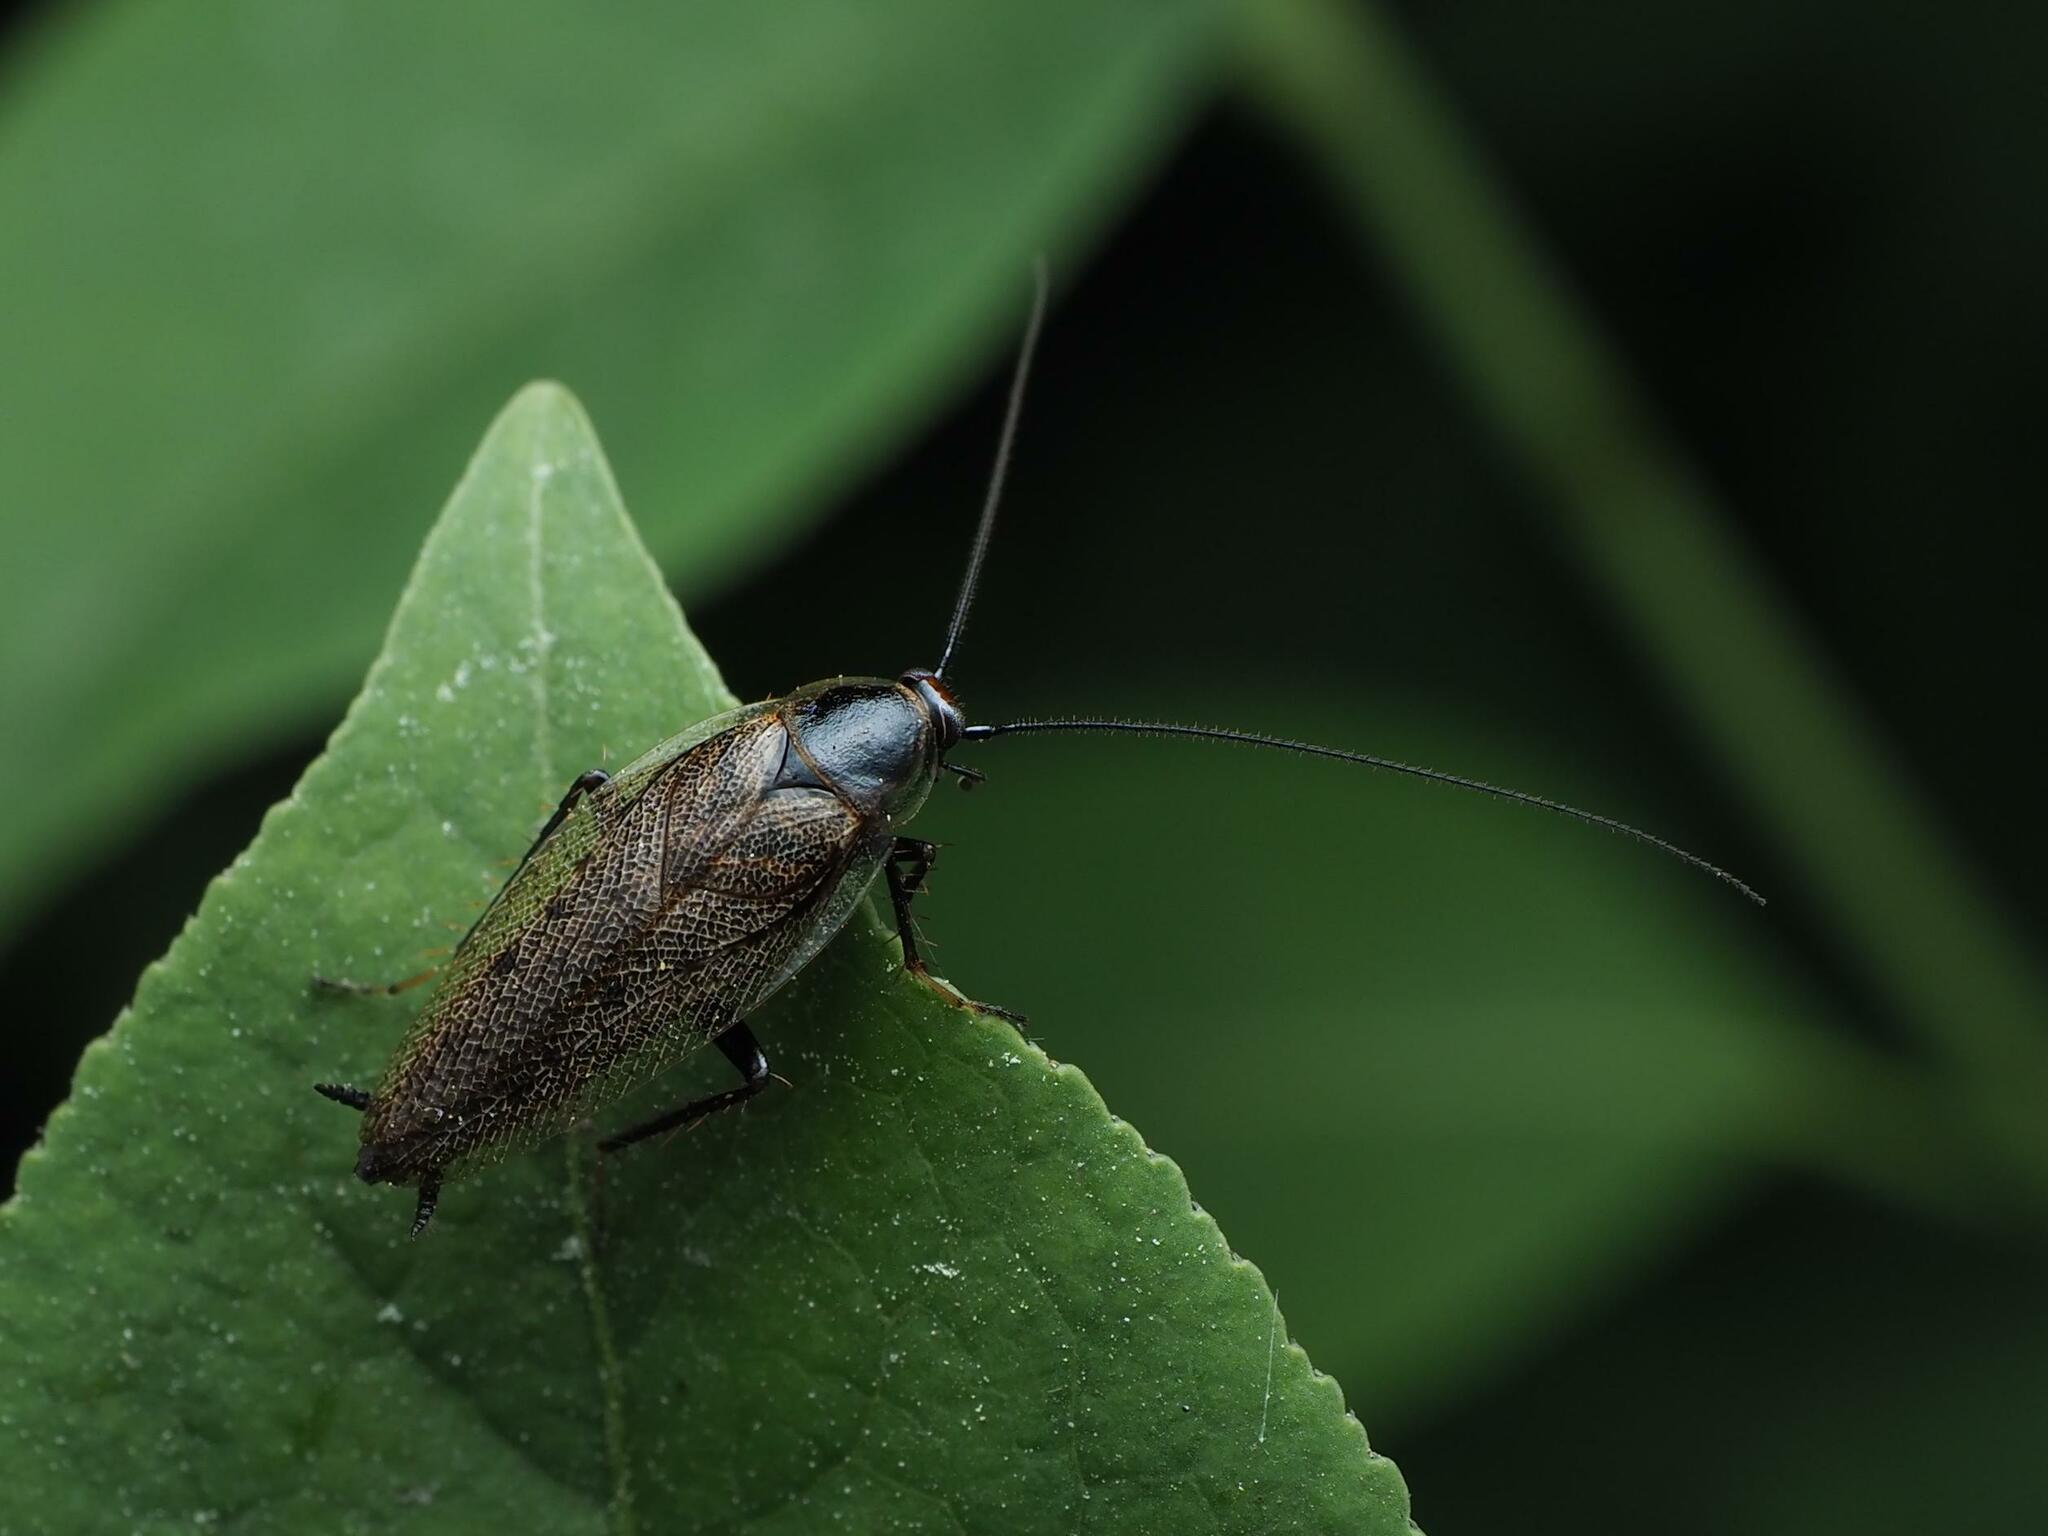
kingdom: Animalia
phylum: Arthropoda
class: Insecta
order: Blattodea
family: Ectobiidae
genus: Ectobius
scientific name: Ectobius lapponicus
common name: Dusky cockroach
